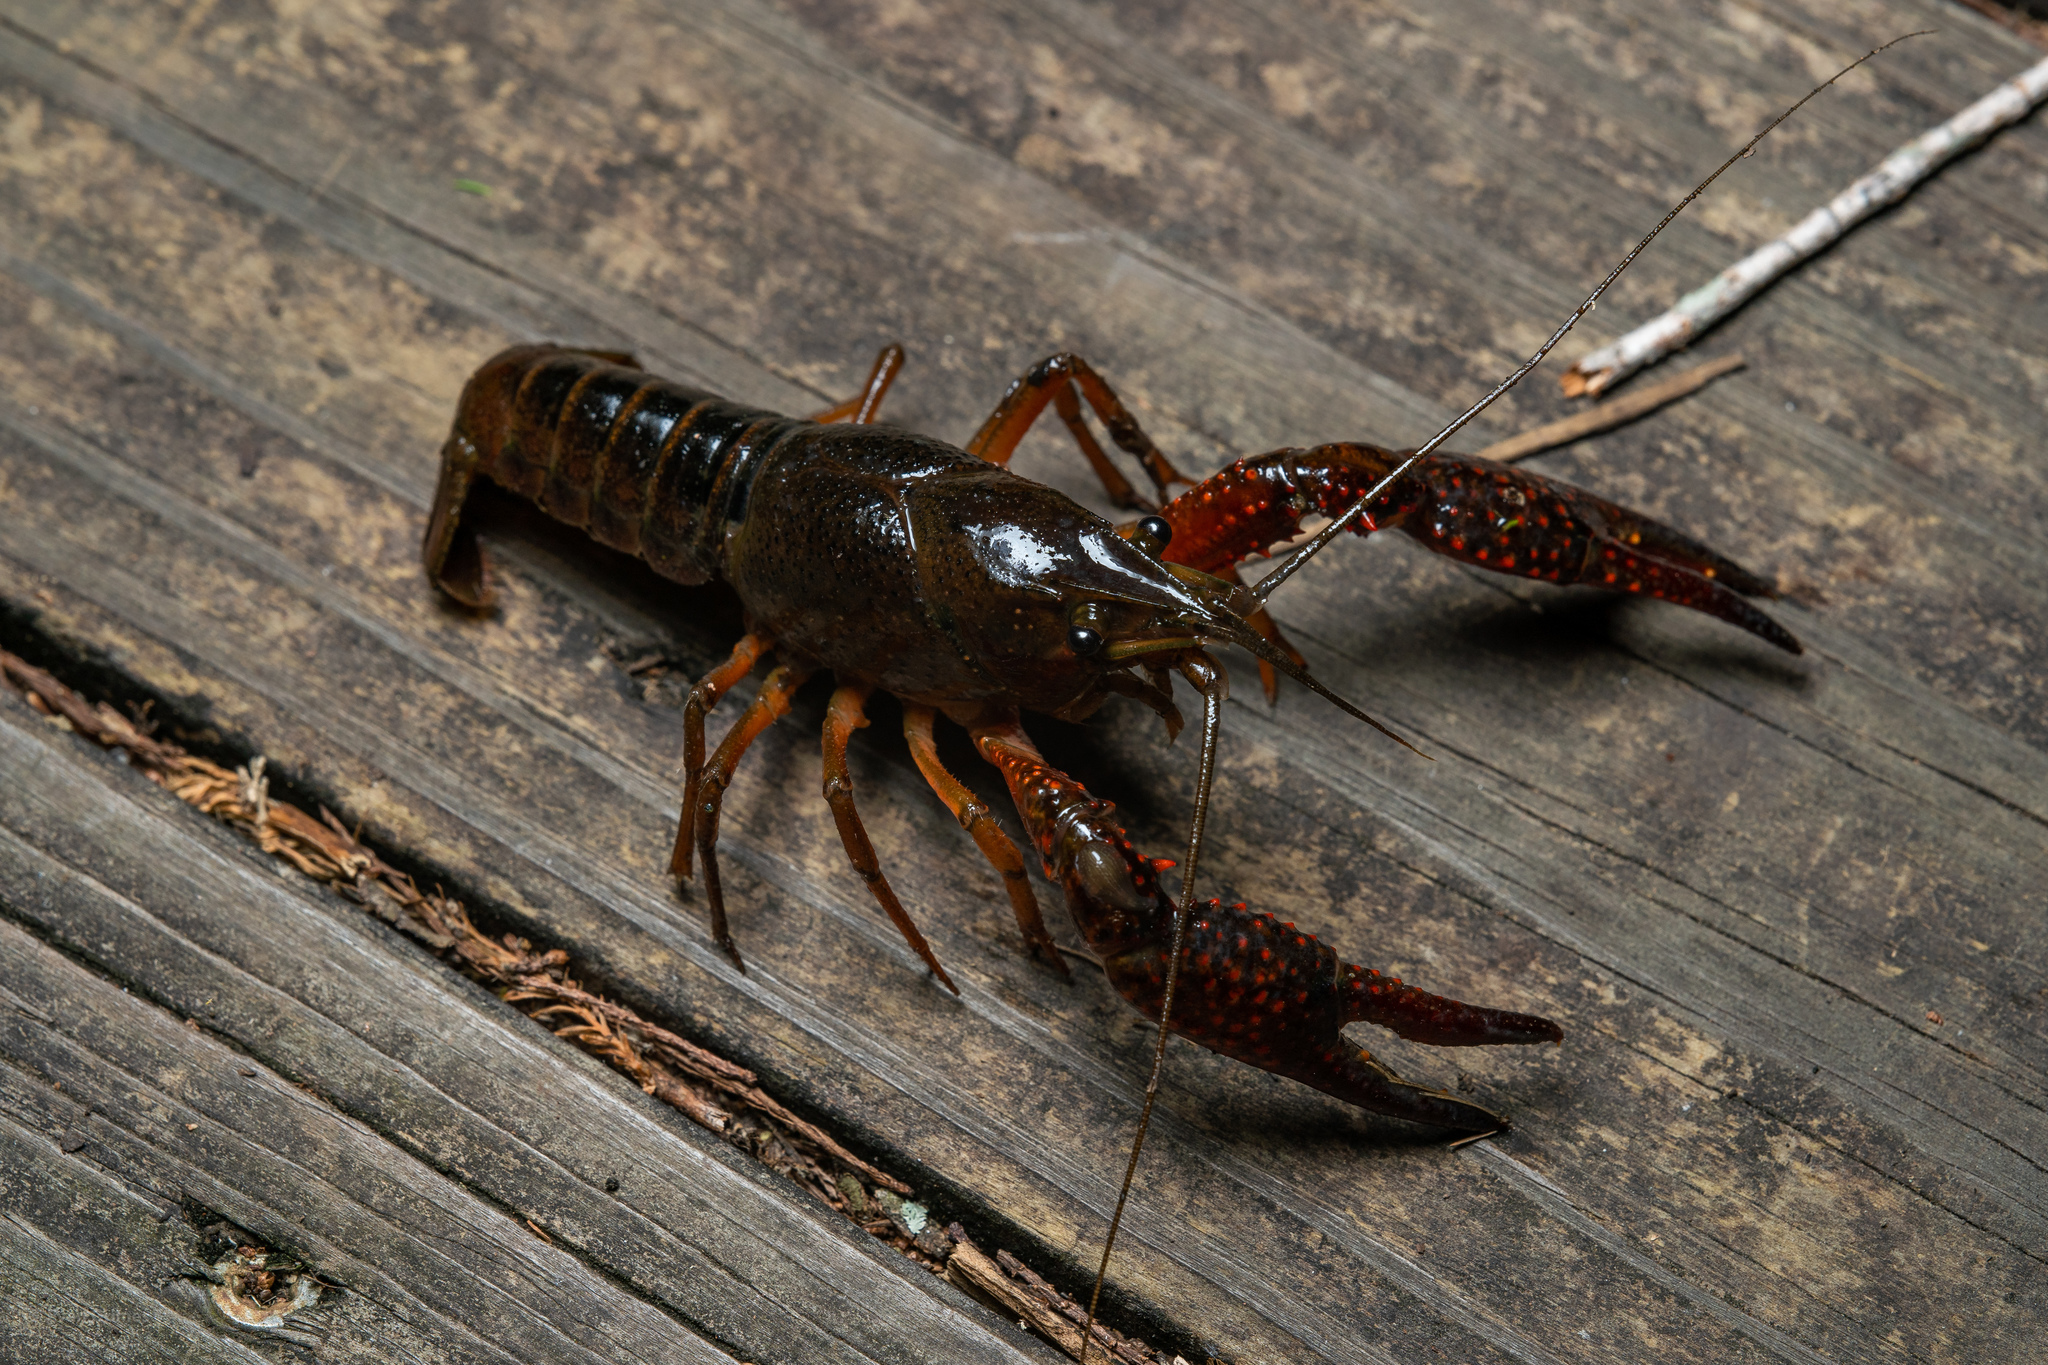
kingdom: Animalia
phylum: Arthropoda
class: Malacostraca
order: Decapoda
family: Cambaridae
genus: Procambarus
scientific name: Procambarus clarkii
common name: Red swamp crayfish
